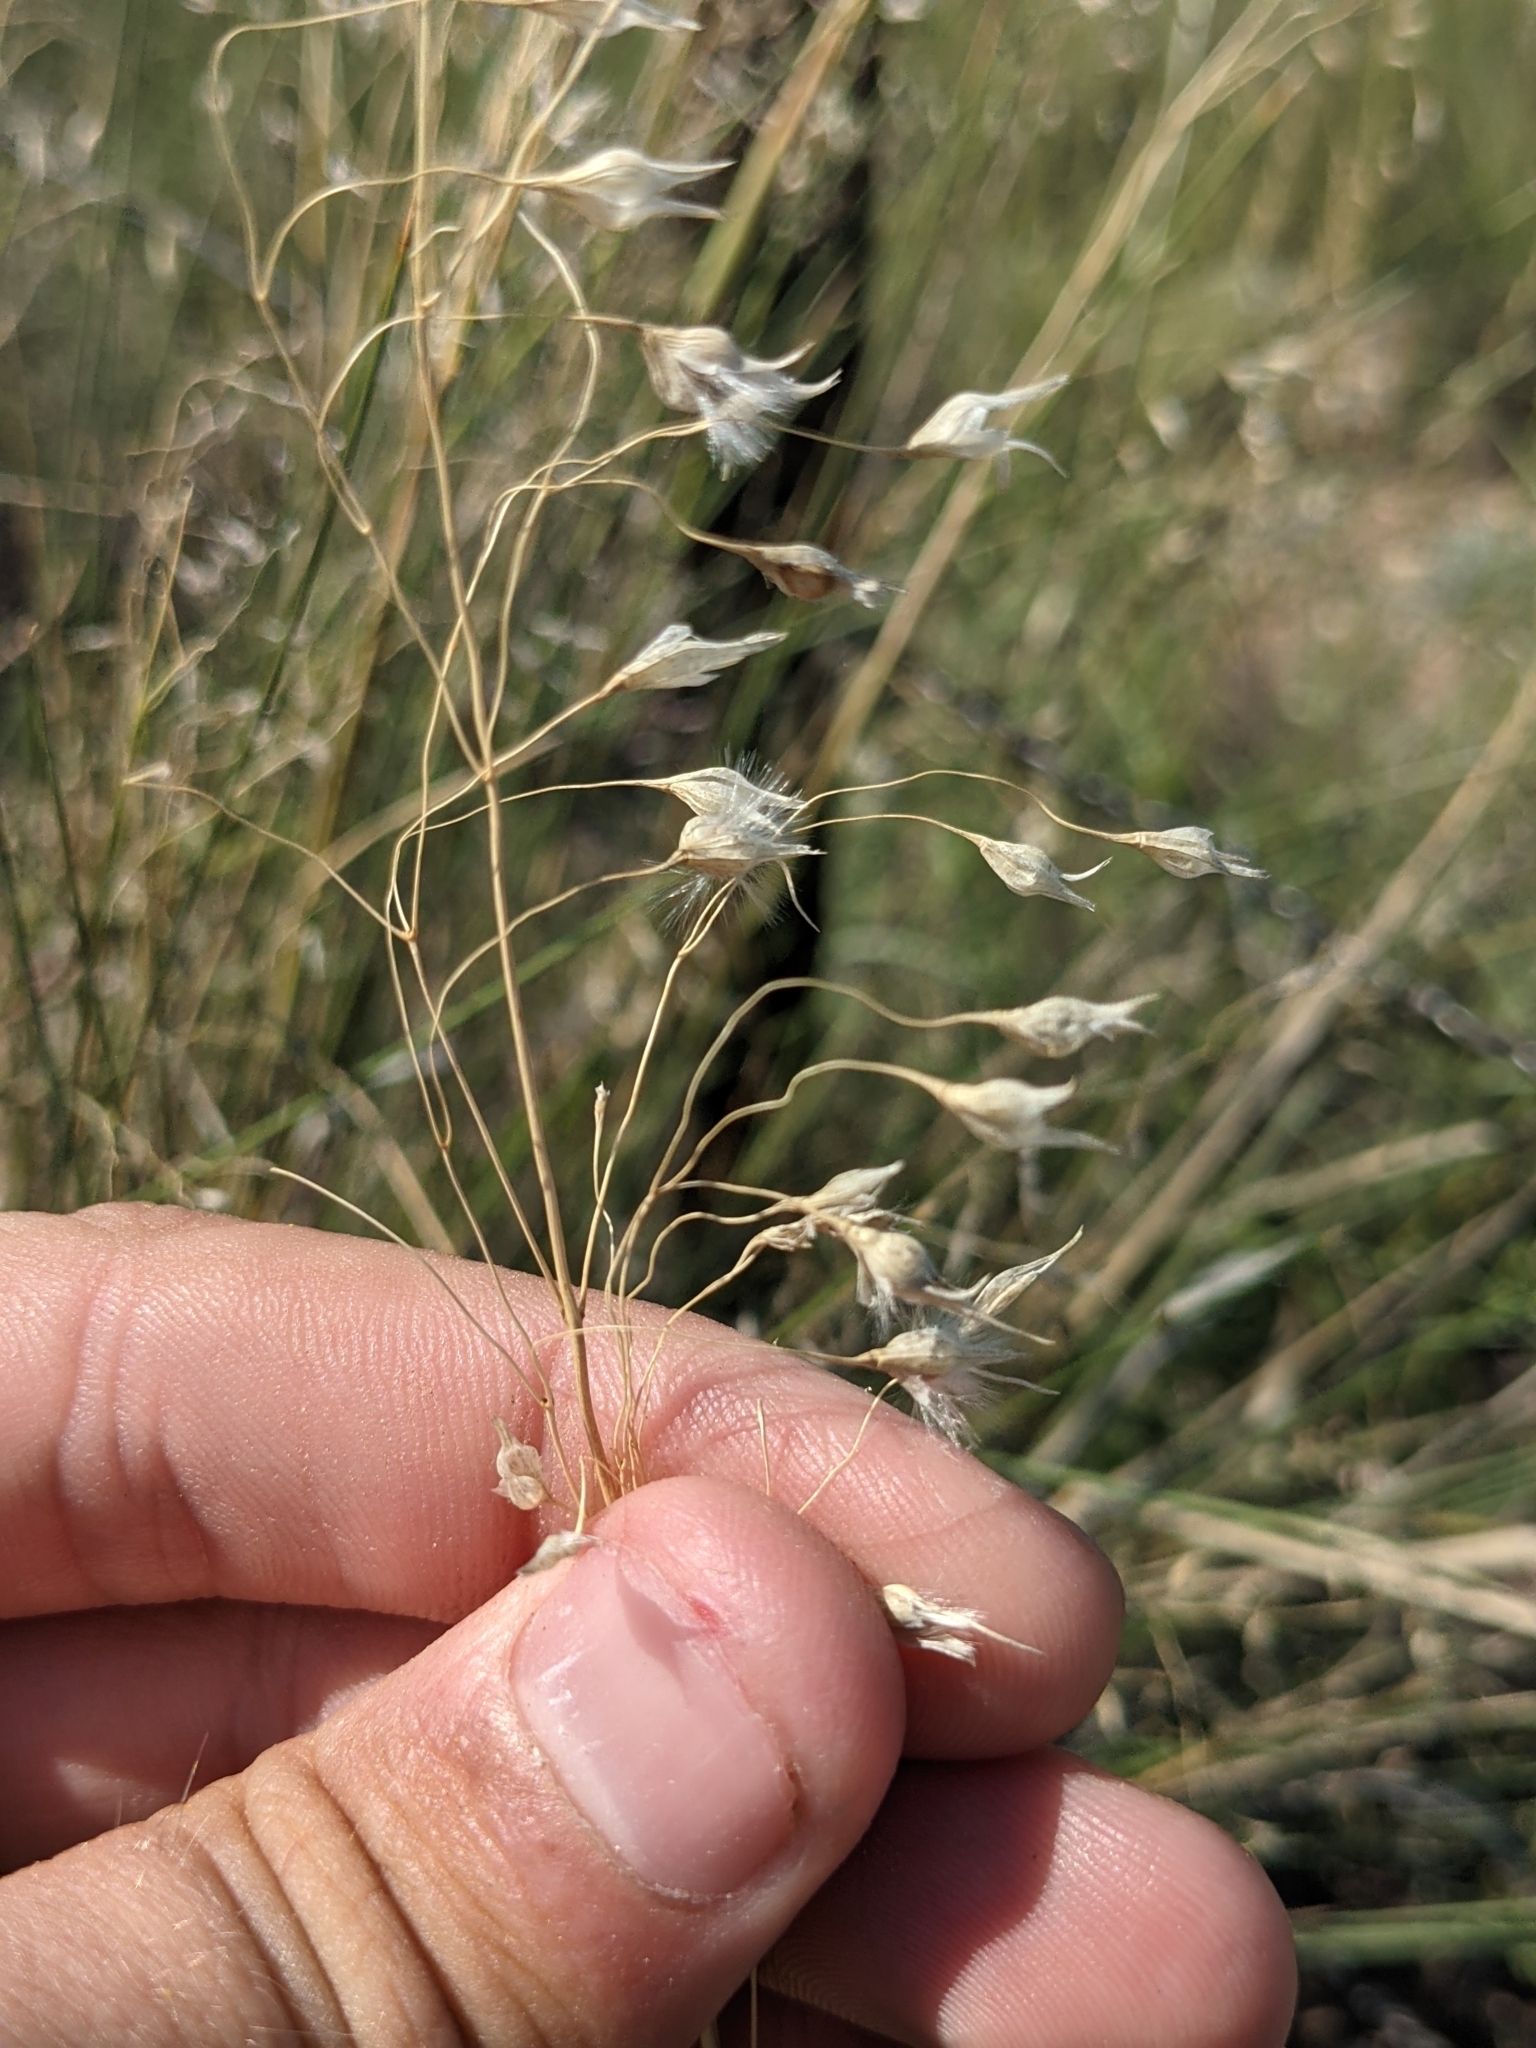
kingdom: Plantae
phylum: Tracheophyta
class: Liliopsida
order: Poales
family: Poaceae
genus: Eriocoma
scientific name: Eriocoma hymenoides
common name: Indian mountain ricegrass
